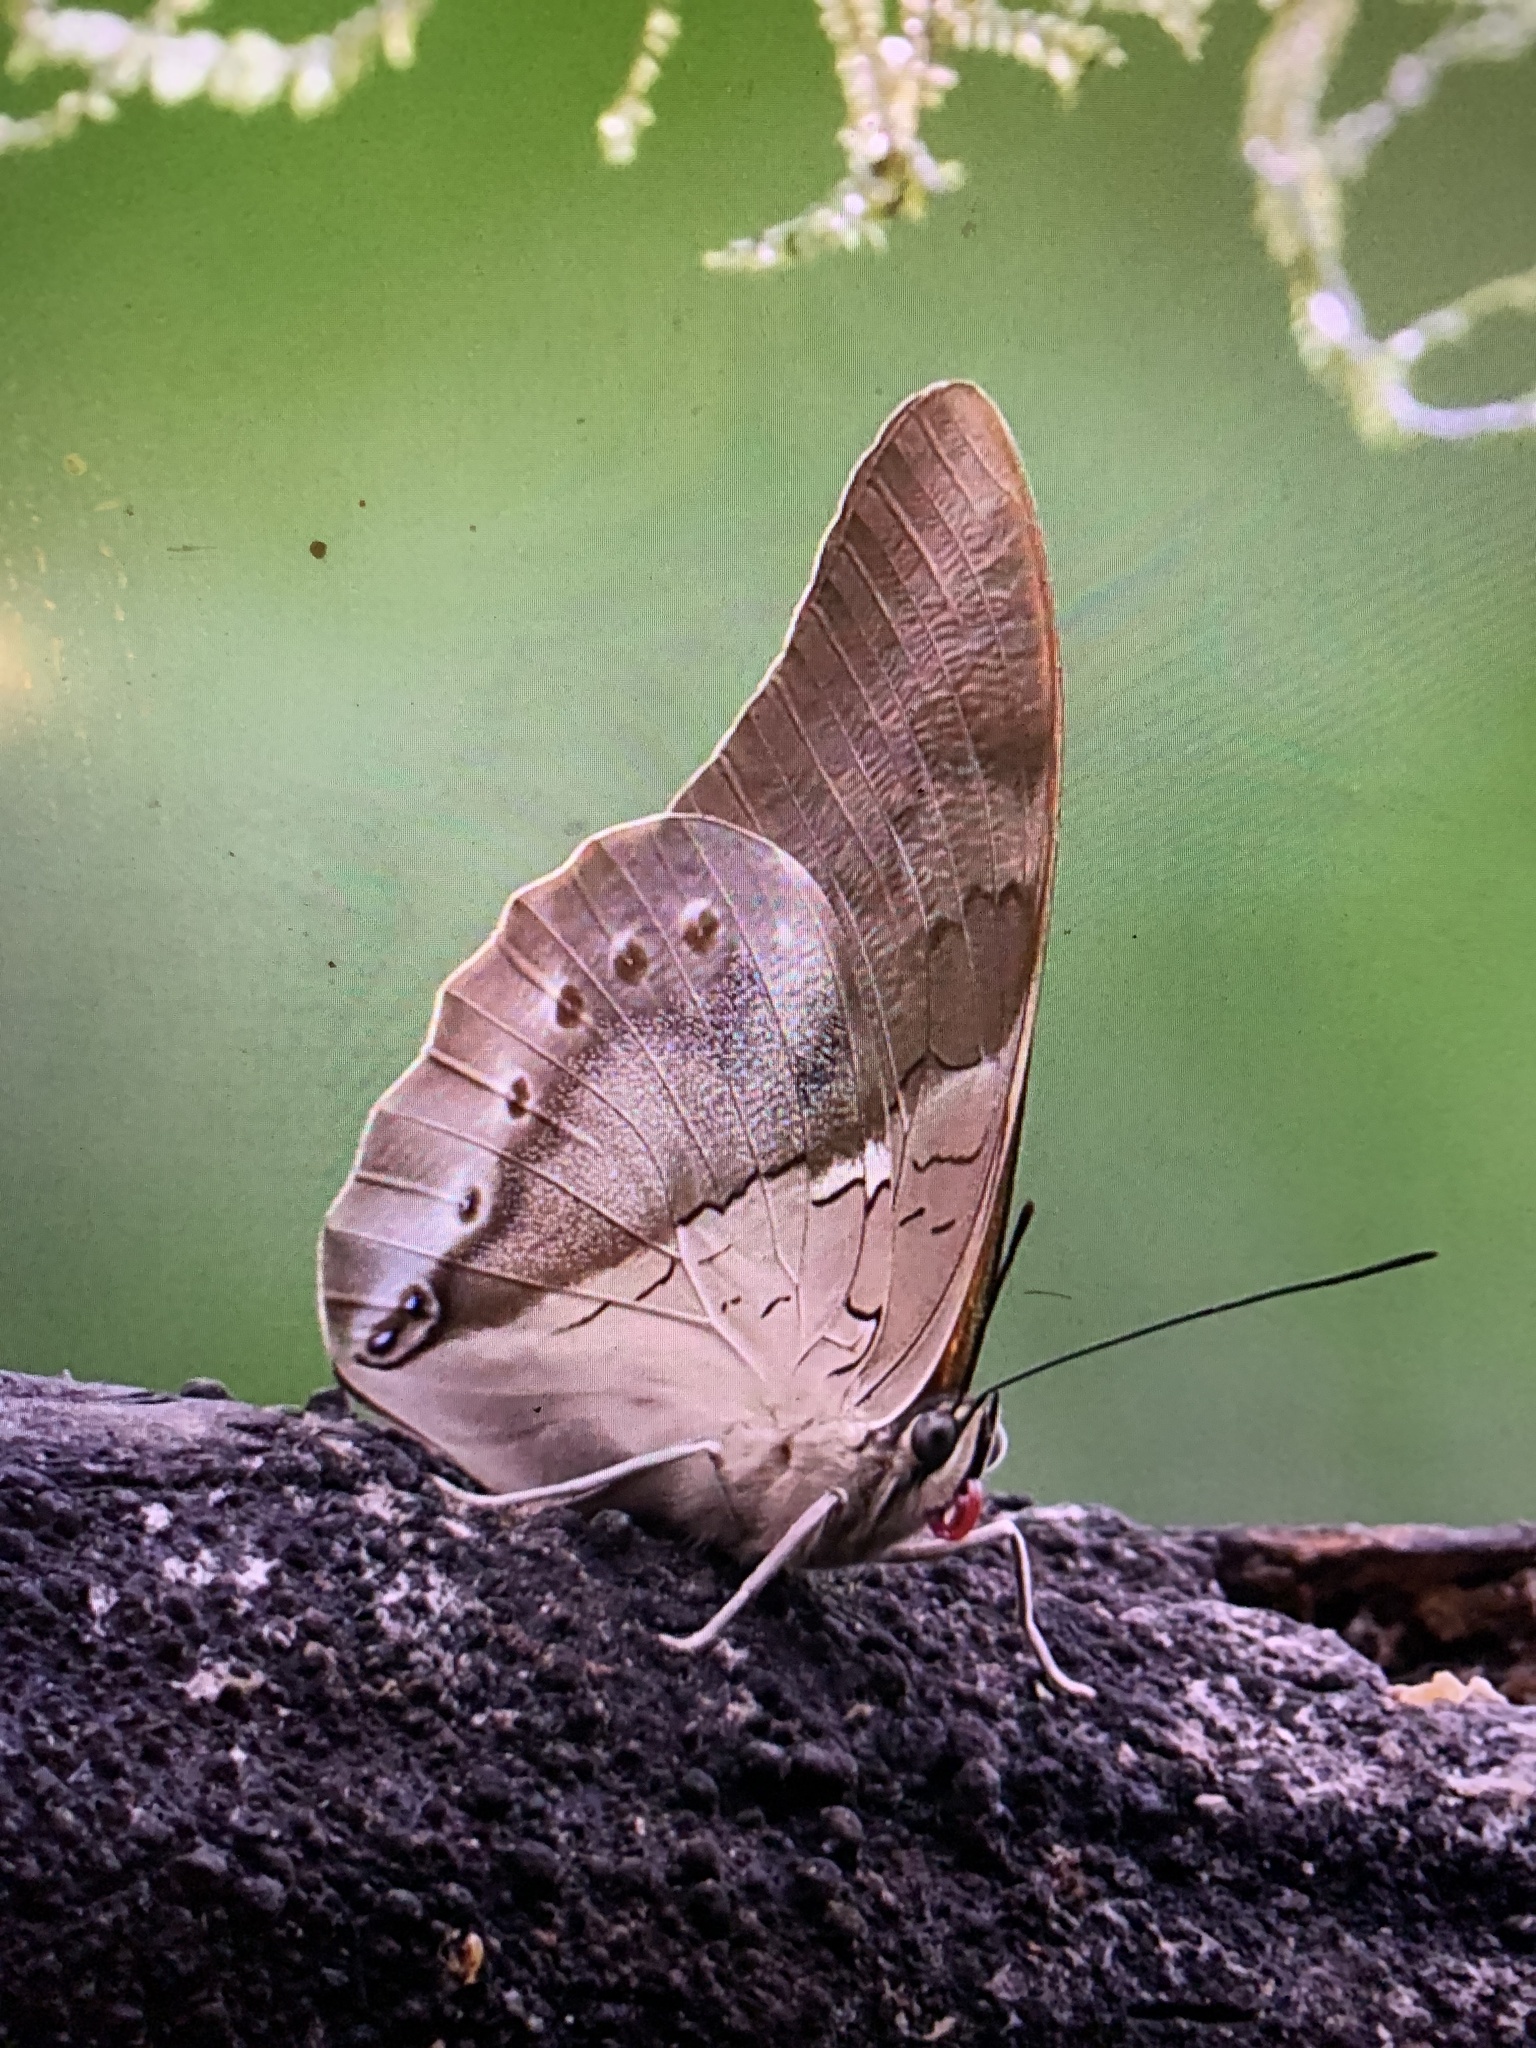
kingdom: Animalia
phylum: Arthropoda
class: Insecta
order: Lepidoptera
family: Nymphalidae
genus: Prepona
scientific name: Prepona
